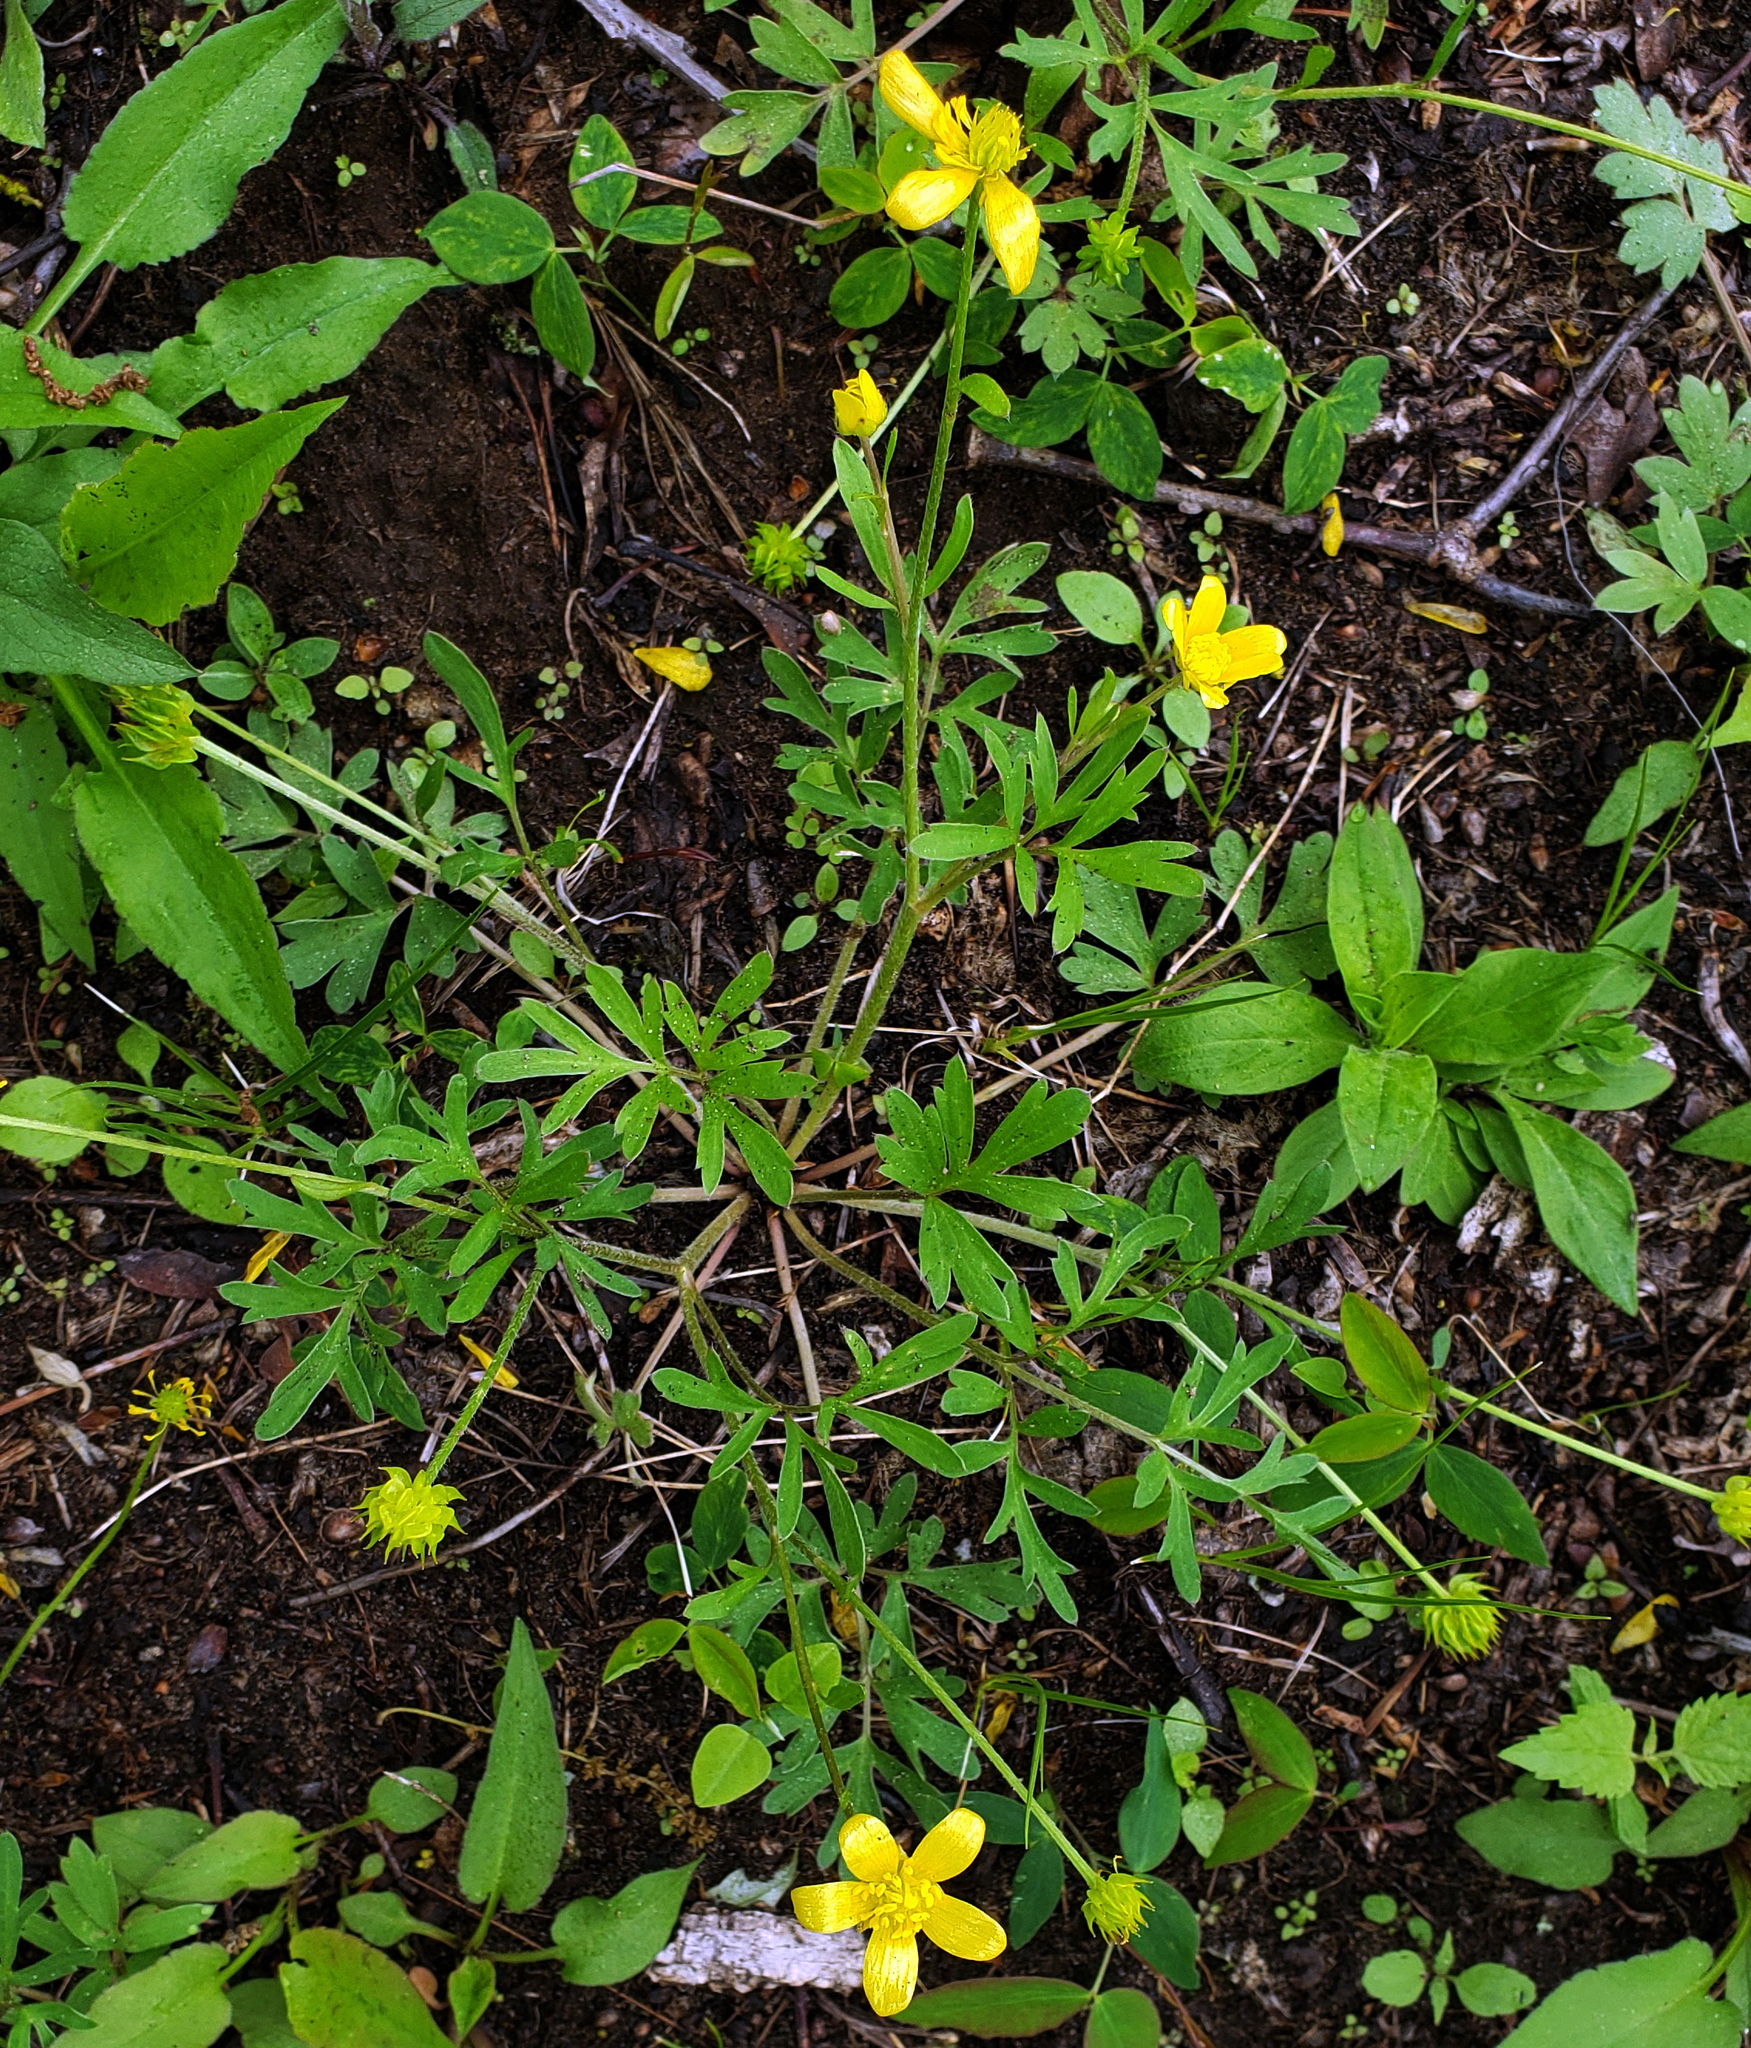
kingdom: Plantae
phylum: Tracheophyta
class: Magnoliopsida
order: Ranunculales
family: Ranunculaceae
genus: Ranunculus
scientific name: Ranunculus fascicularis
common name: Early buttercup
